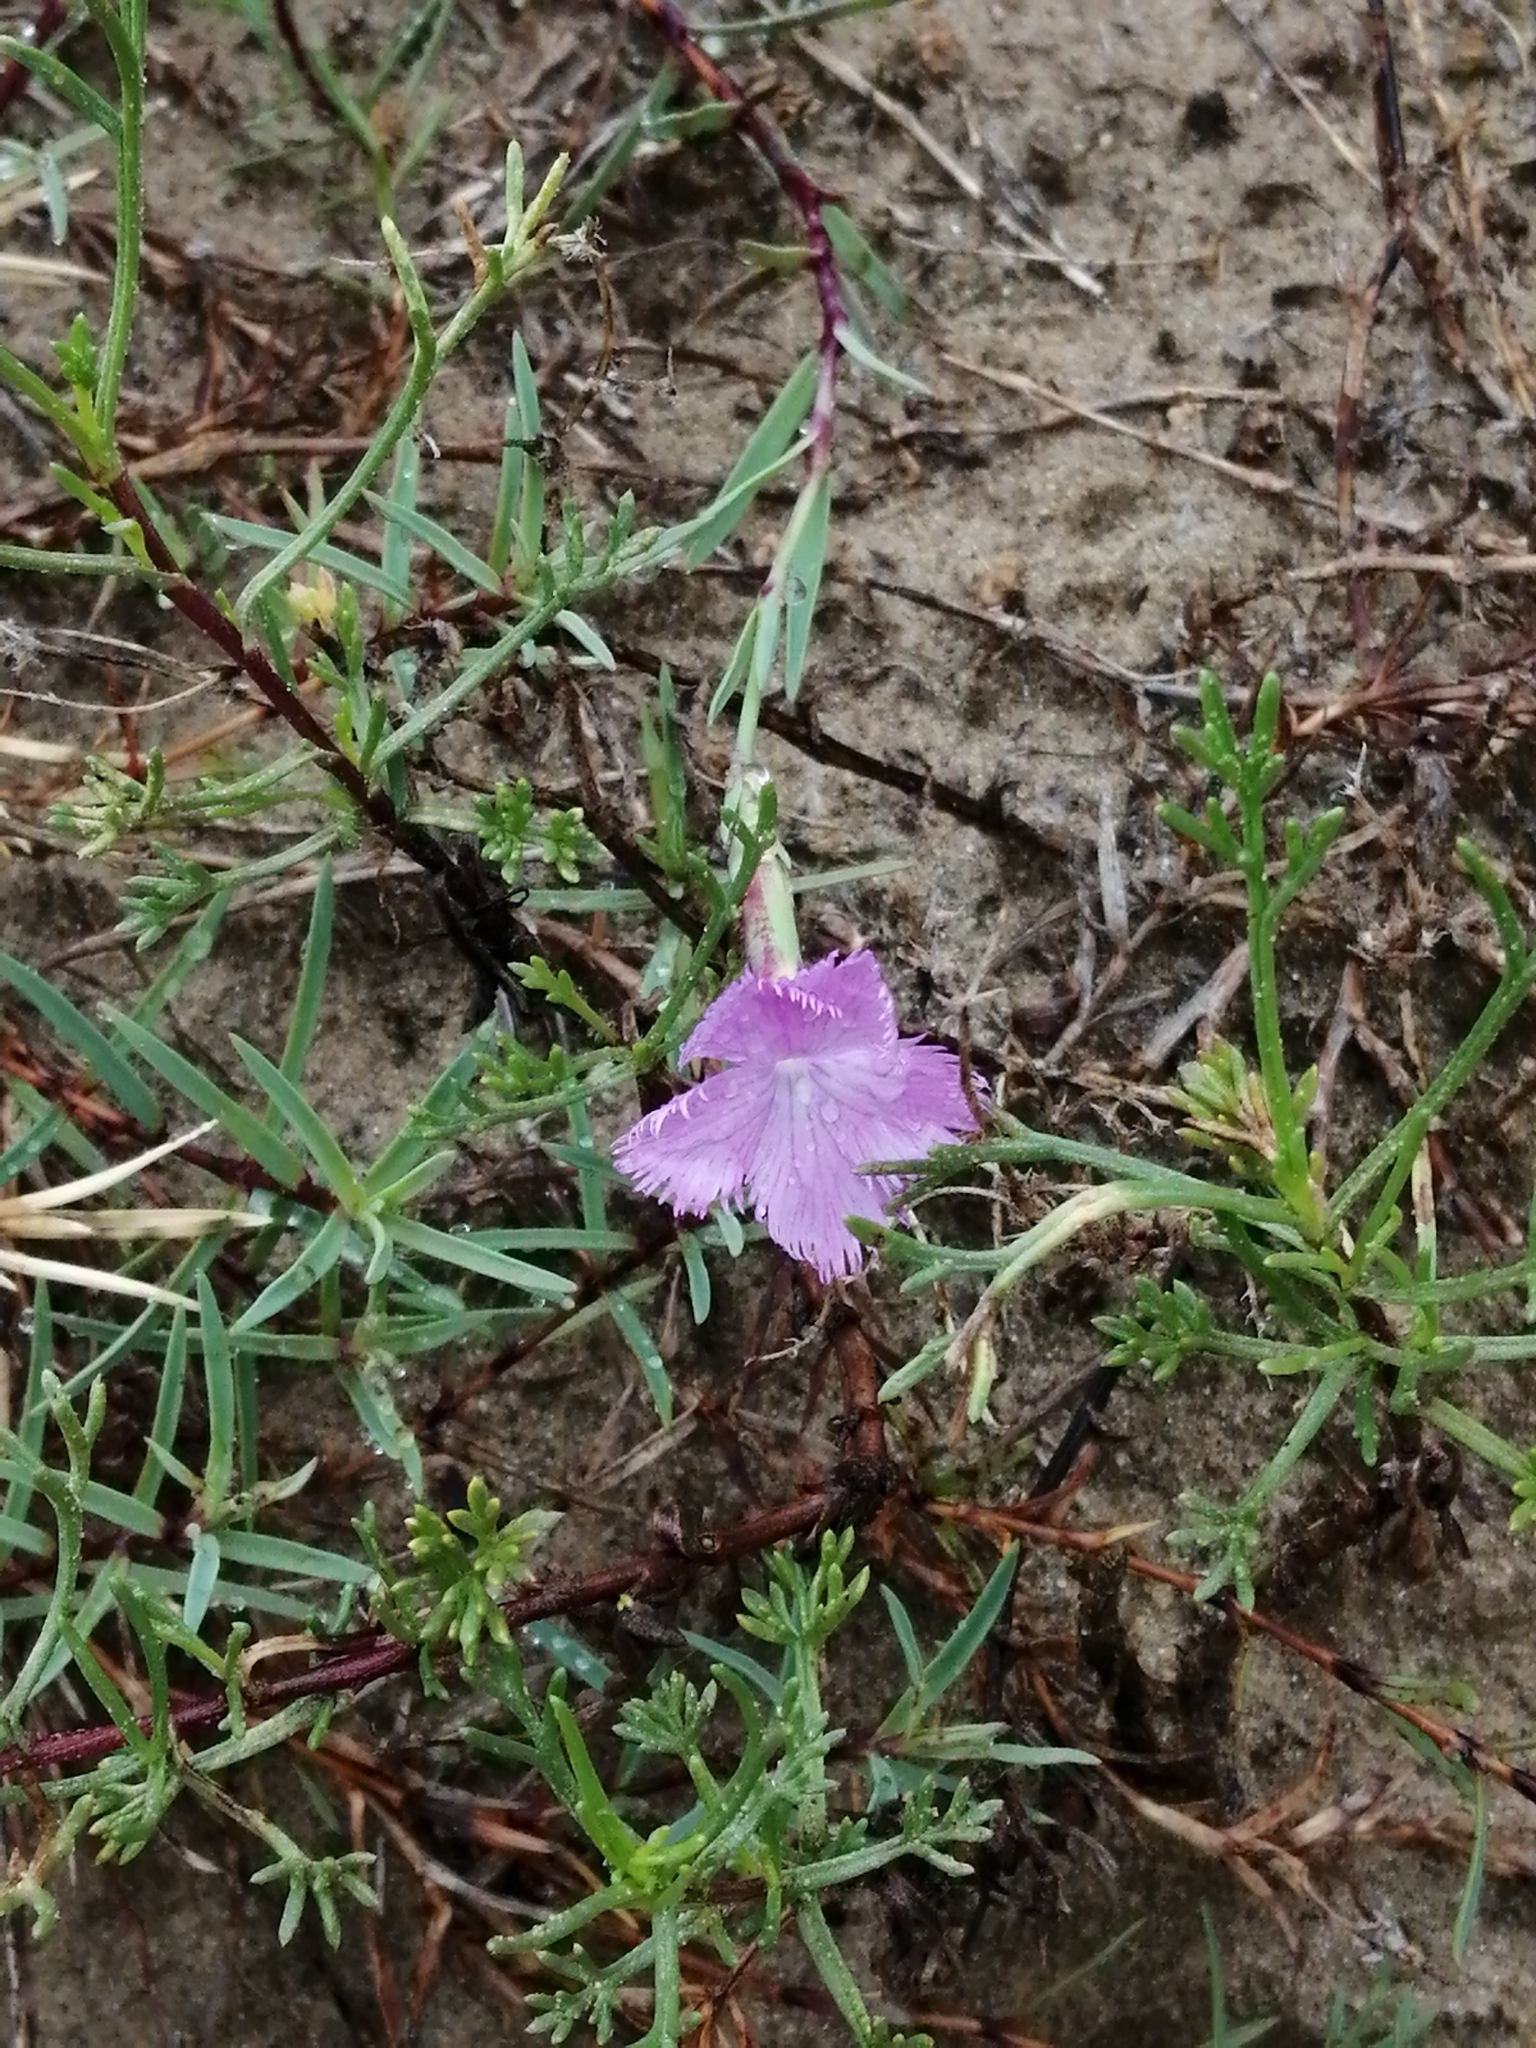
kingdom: Plantae
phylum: Tracheophyta
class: Magnoliopsida
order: Caryophyllales
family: Caryophyllaceae
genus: Dianthus
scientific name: Dianthus gallicus
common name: Jersey pink
